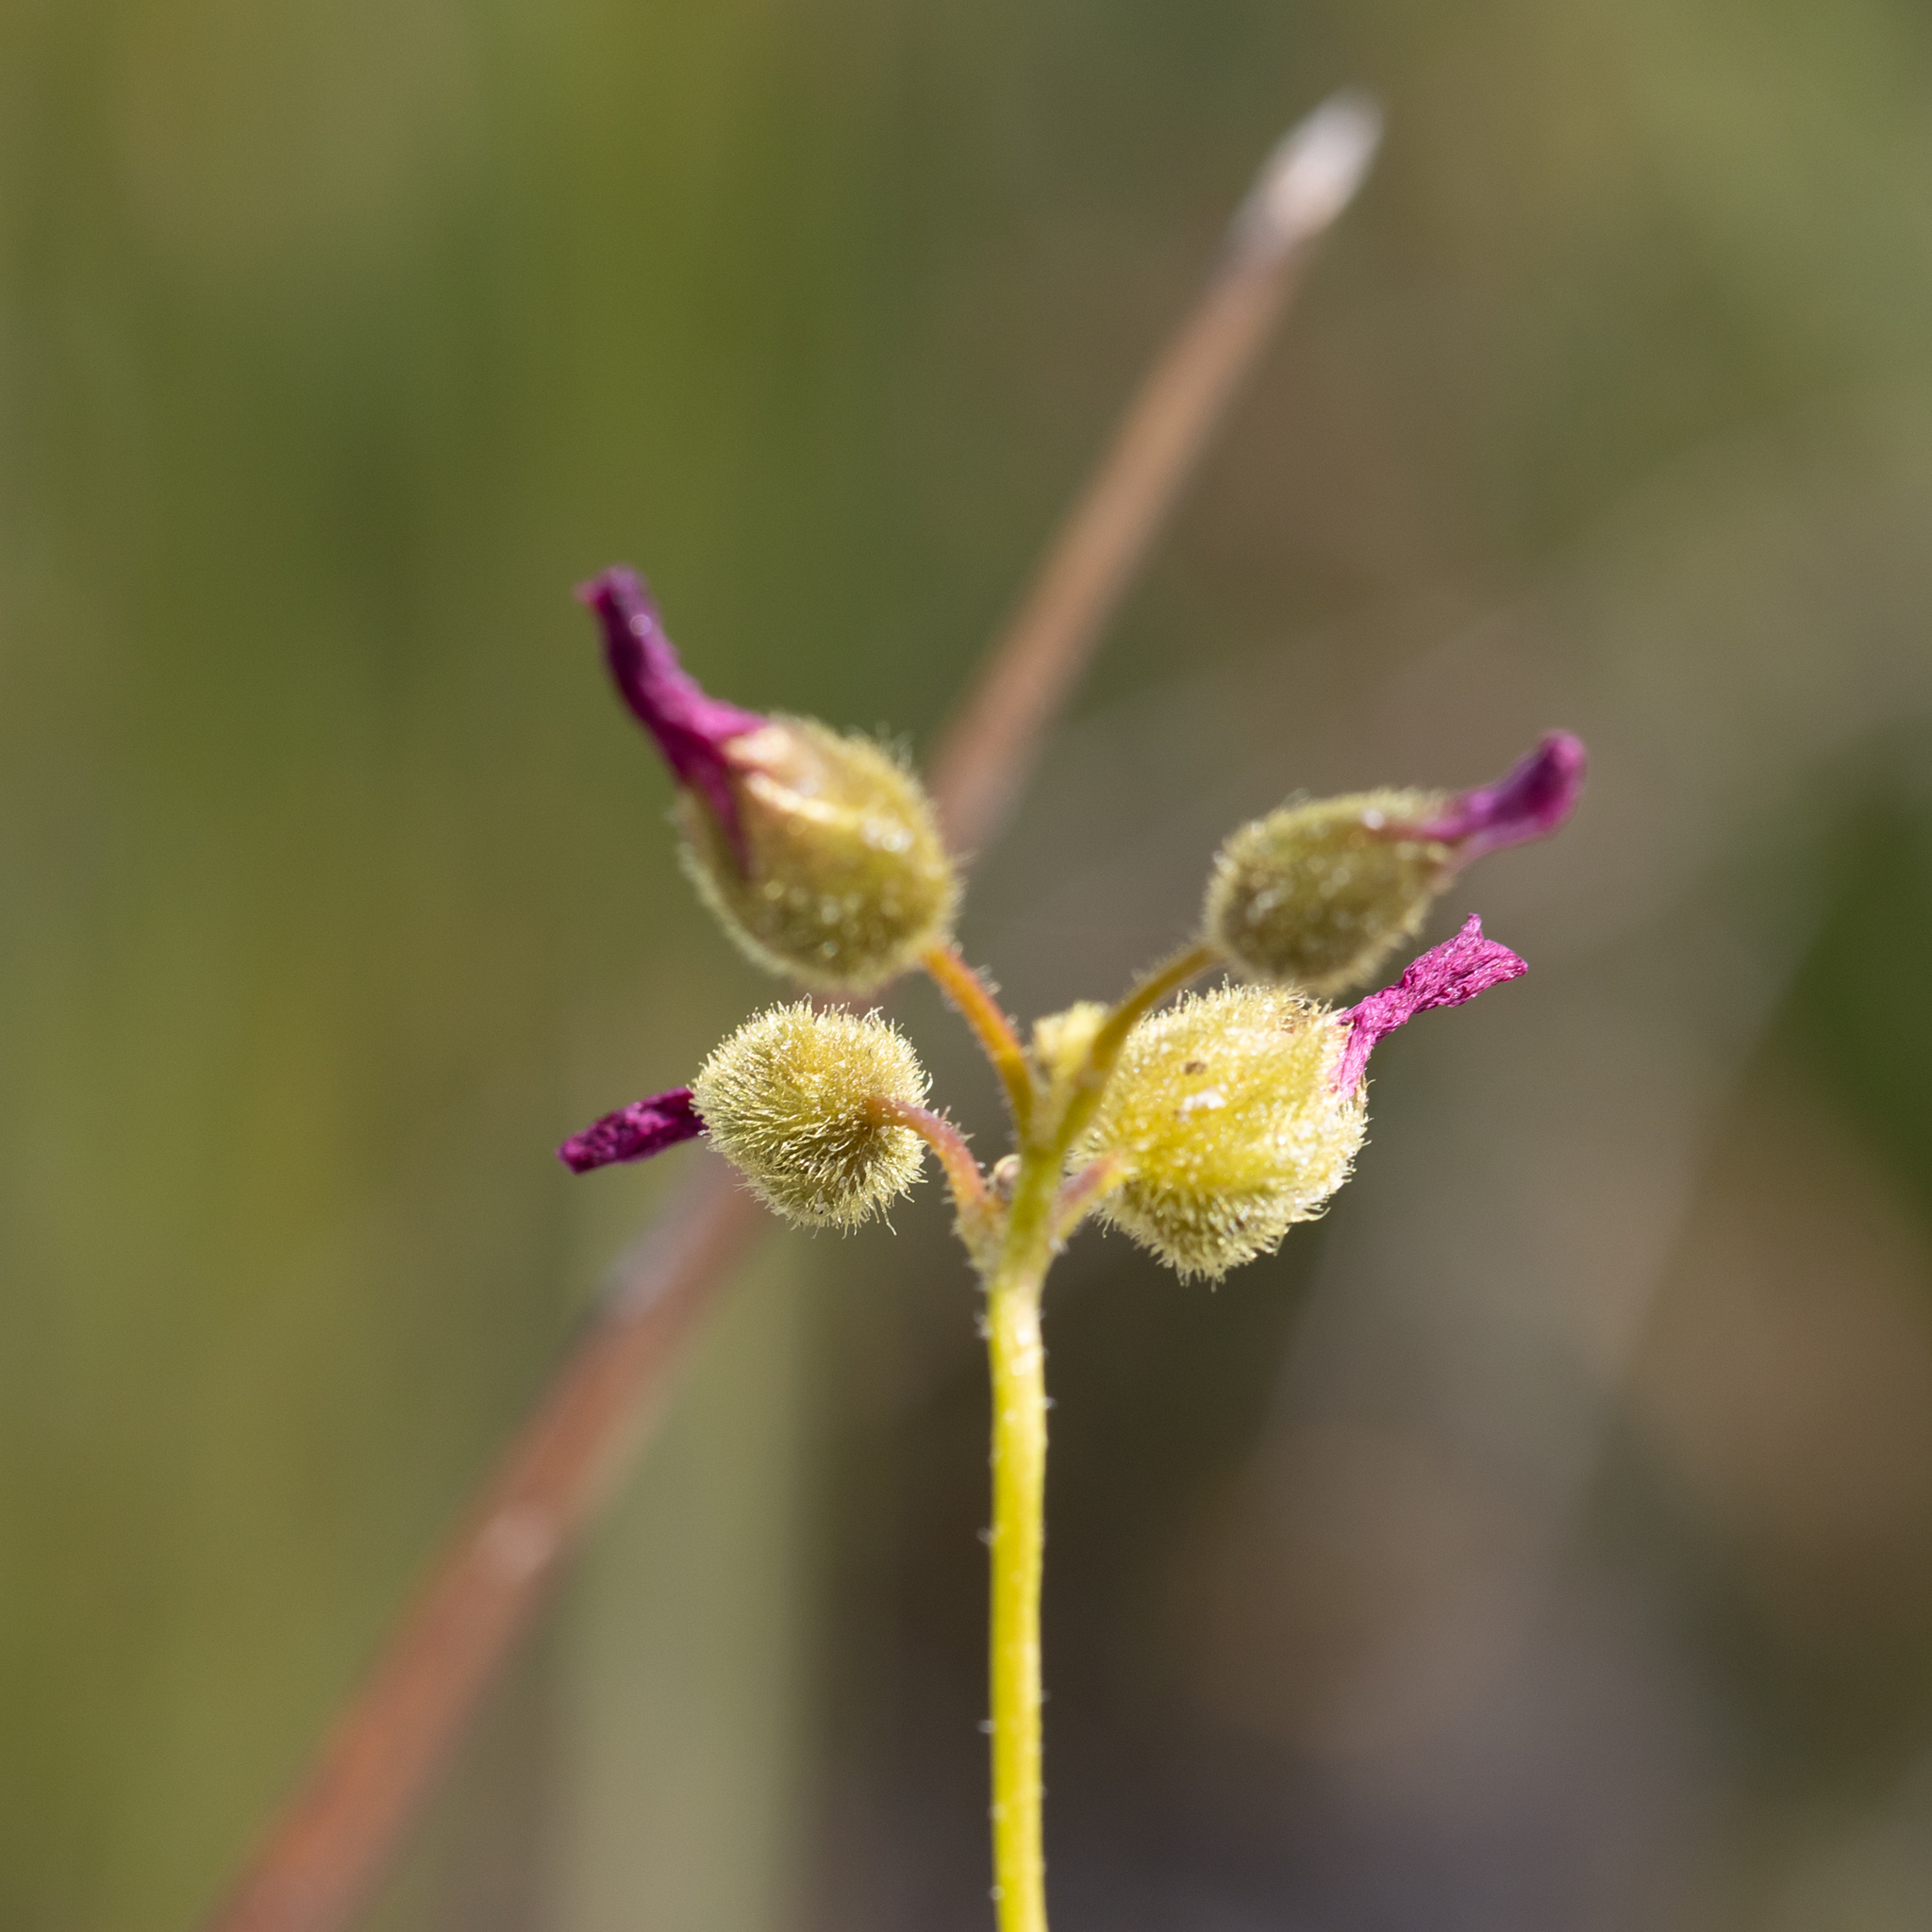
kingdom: Plantae
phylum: Tracheophyta
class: Magnoliopsida
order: Caryophyllales
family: Droseraceae
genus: Drosera
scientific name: Drosera neesii
